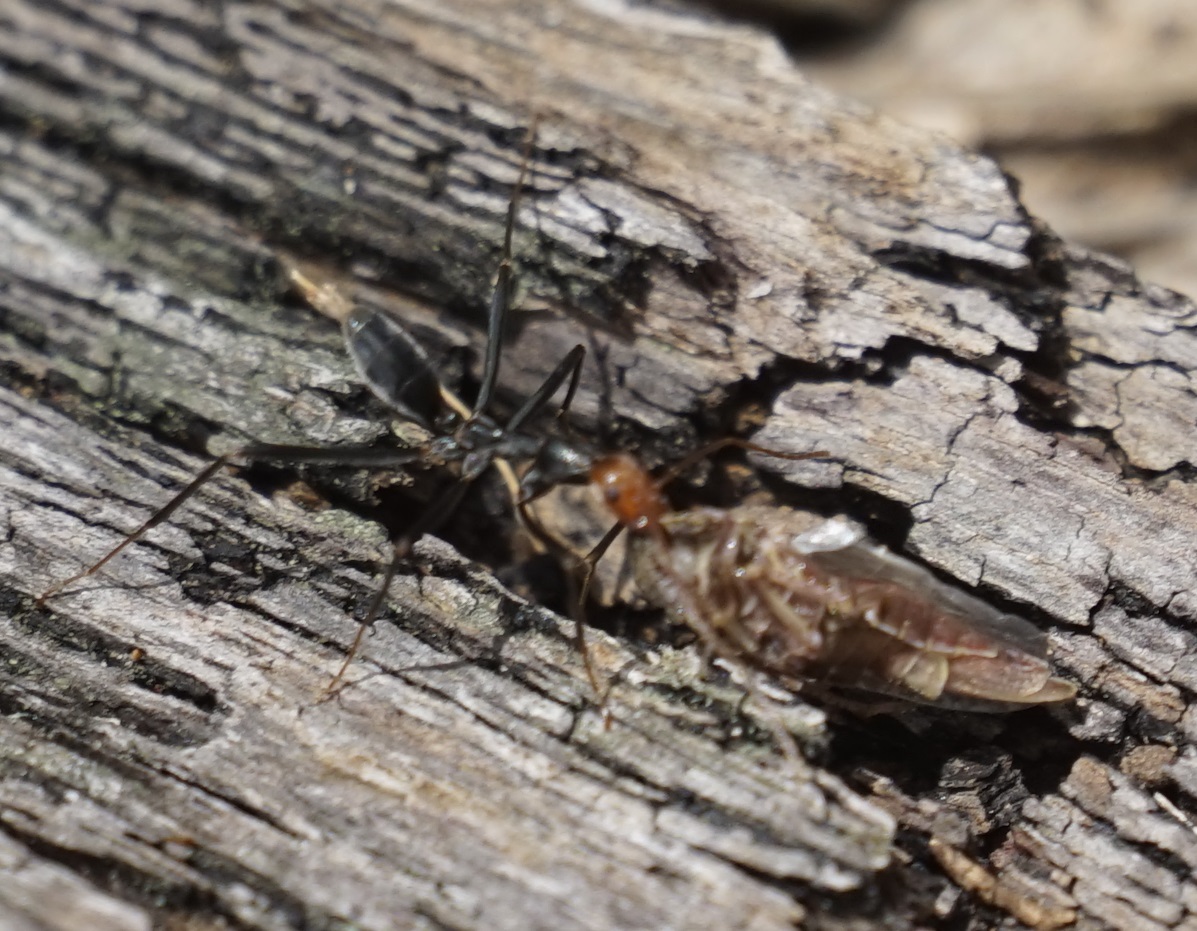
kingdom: Animalia
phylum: Arthropoda
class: Insecta
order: Hymenoptera
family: Formicidae
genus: Leptomyrmex
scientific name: Leptomyrmex erythrocephalus
